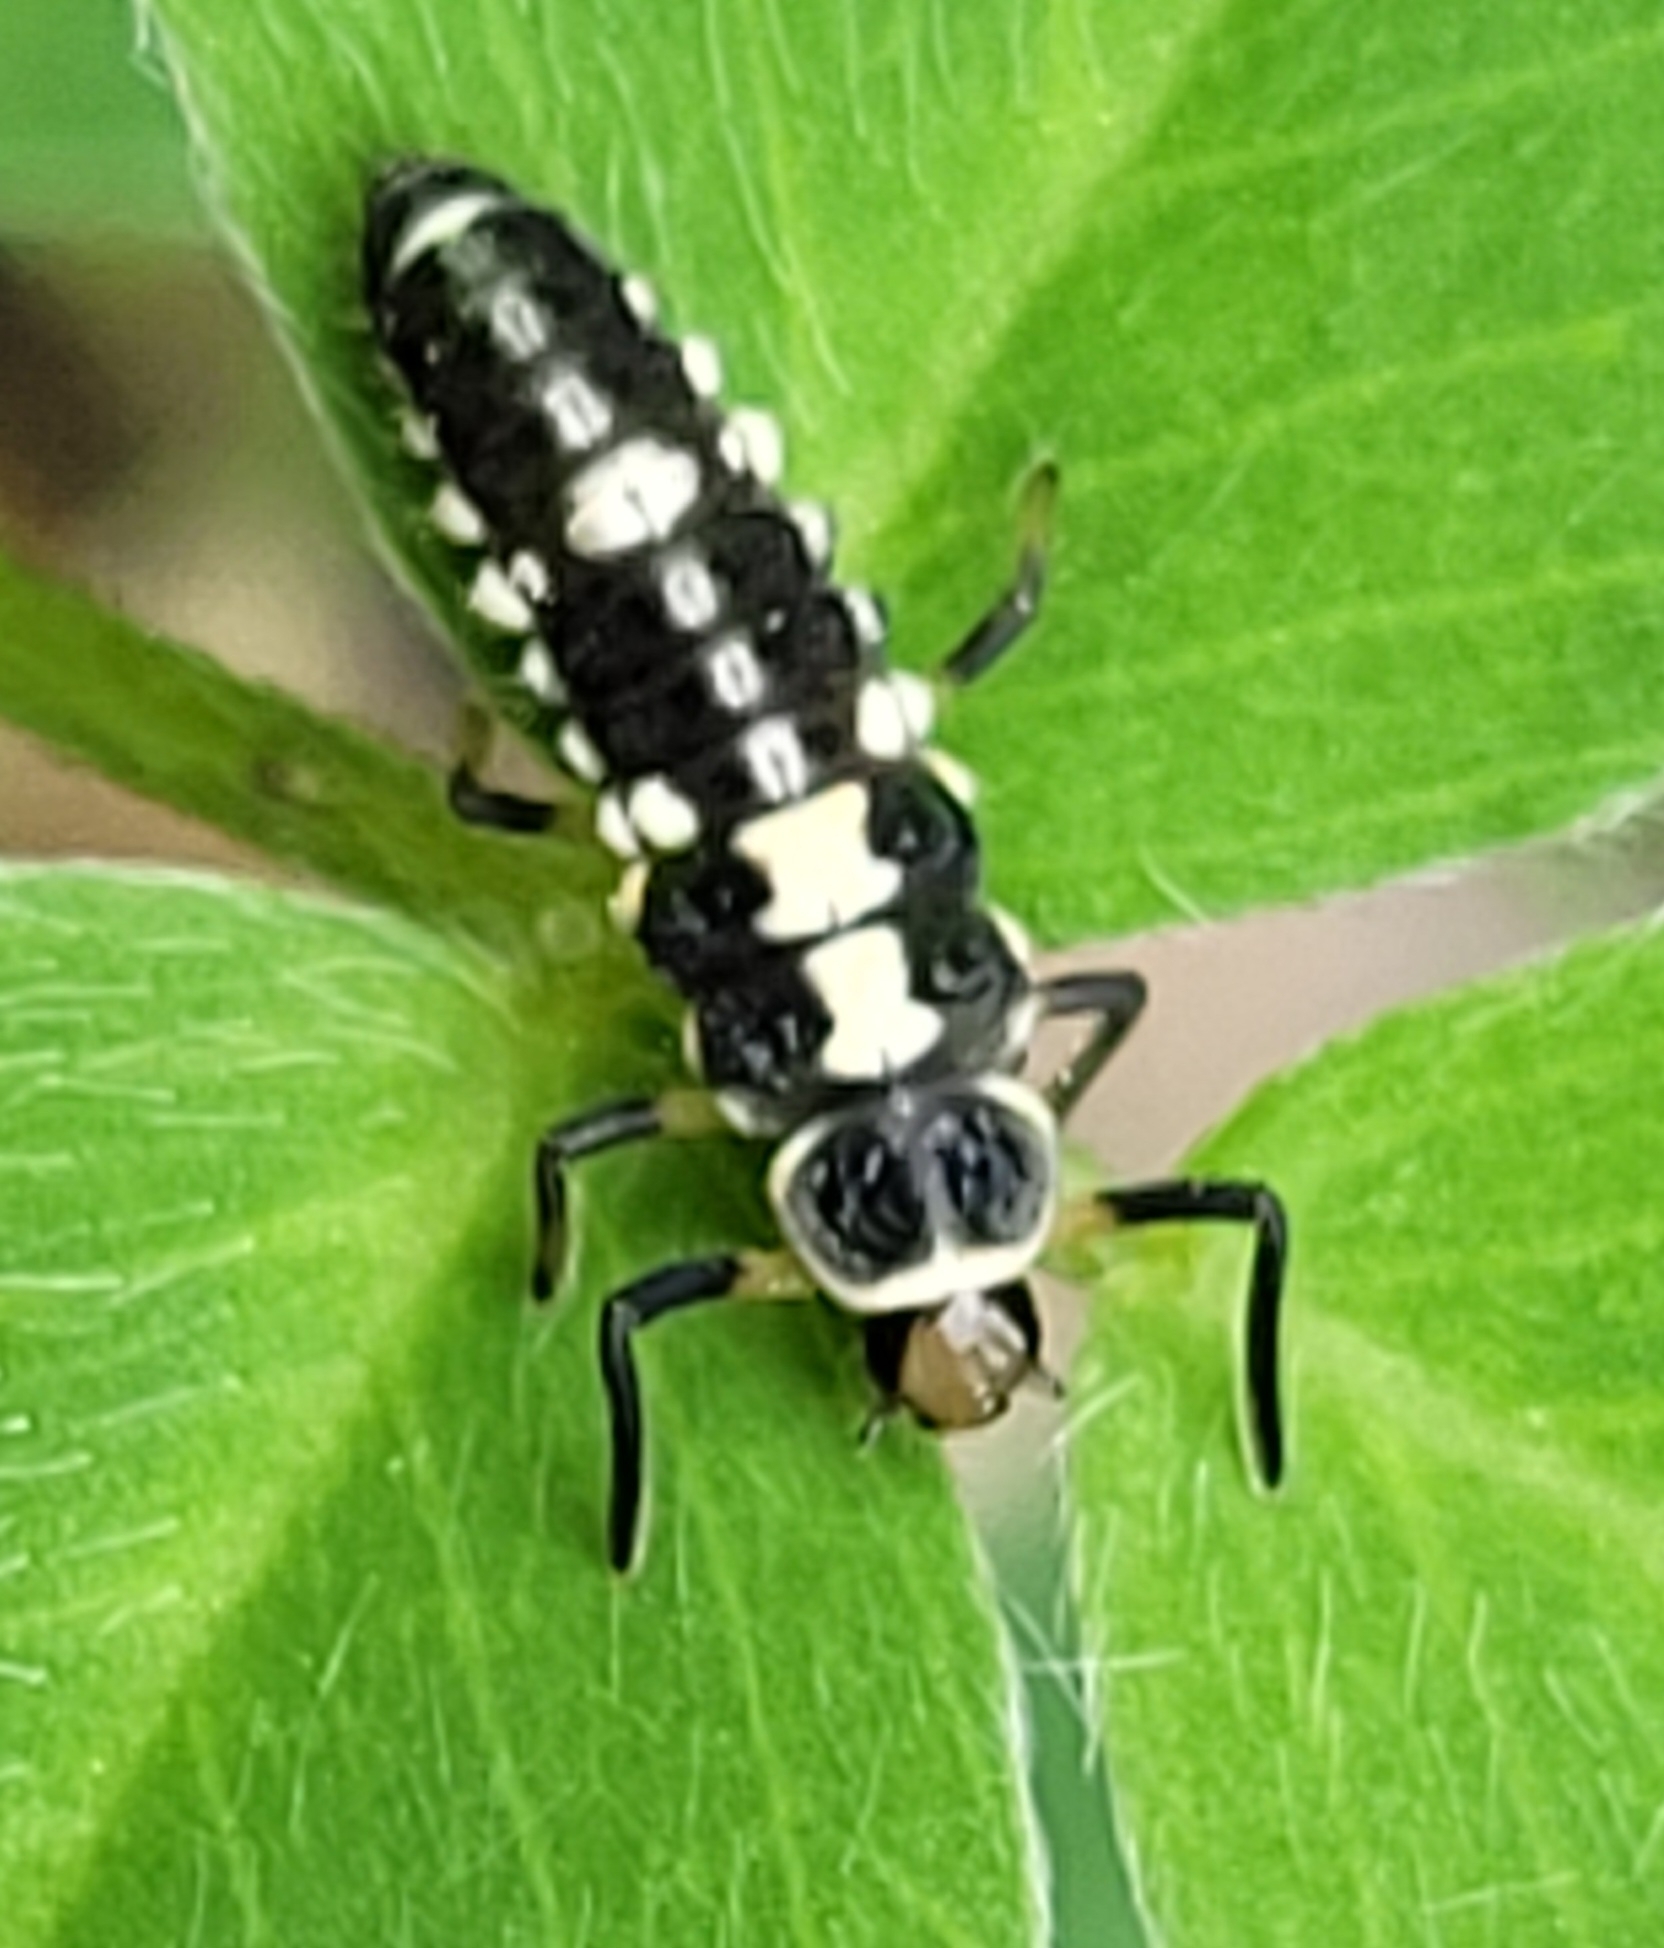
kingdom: Animalia
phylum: Arthropoda
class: Insecta
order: Coleoptera
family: Coccinellidae
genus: Propylaea
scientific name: Propylaea quatuordecimpunctata
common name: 14-spotted ladybird beetle
